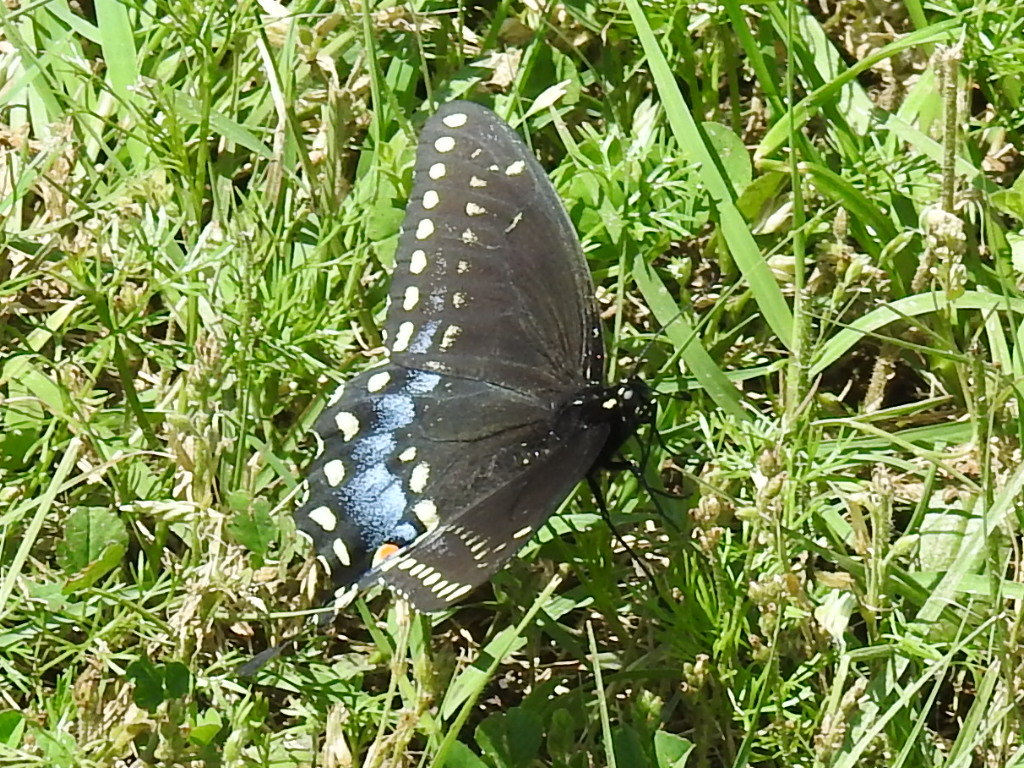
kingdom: Animalia
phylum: Arthropoda
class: Insecta
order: Lepidoptera
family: Papilionidae
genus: Papilio
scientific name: Papilio polyxenes
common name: Black swallowtail
